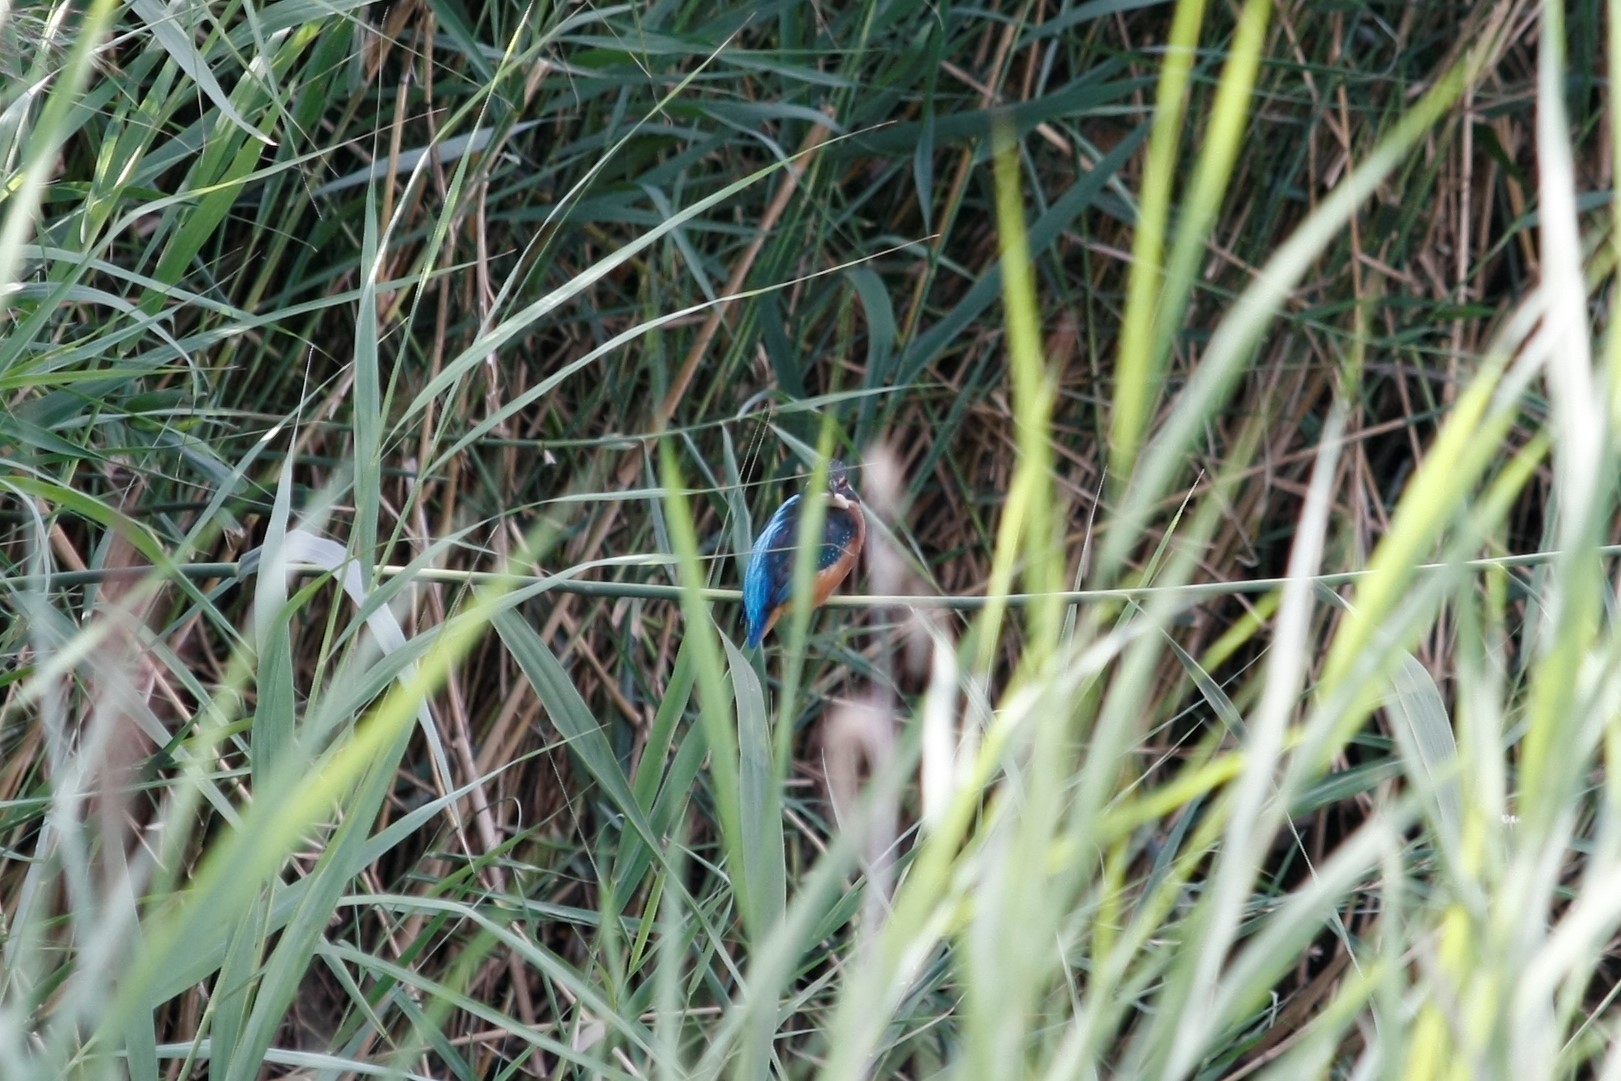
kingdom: Animalia
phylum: Chordata
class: Aves
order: Coraciiformes
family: Alcedinidae
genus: Alcedo
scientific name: Alcedo atthis
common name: Common kingfisher
